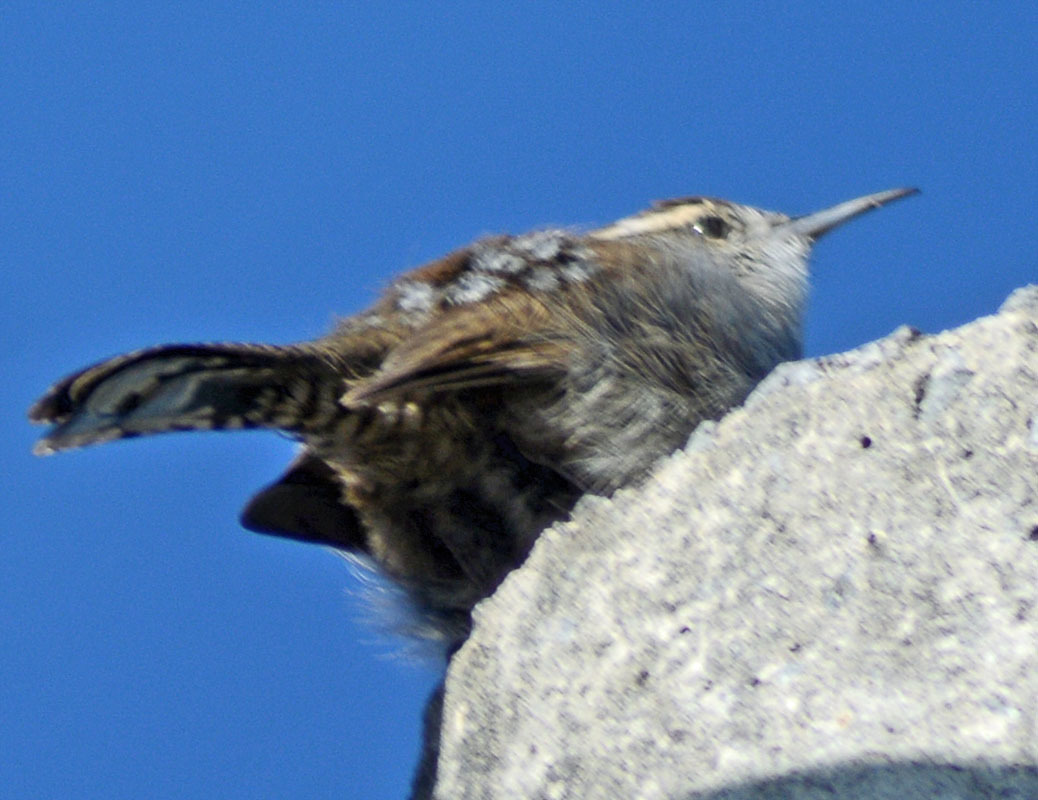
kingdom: Animalia
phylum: Chordata
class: Aves
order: Passeriformes
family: Troglodytidae
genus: Thryomanes
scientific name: Thryomanes bewickii
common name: Bewick's wren
